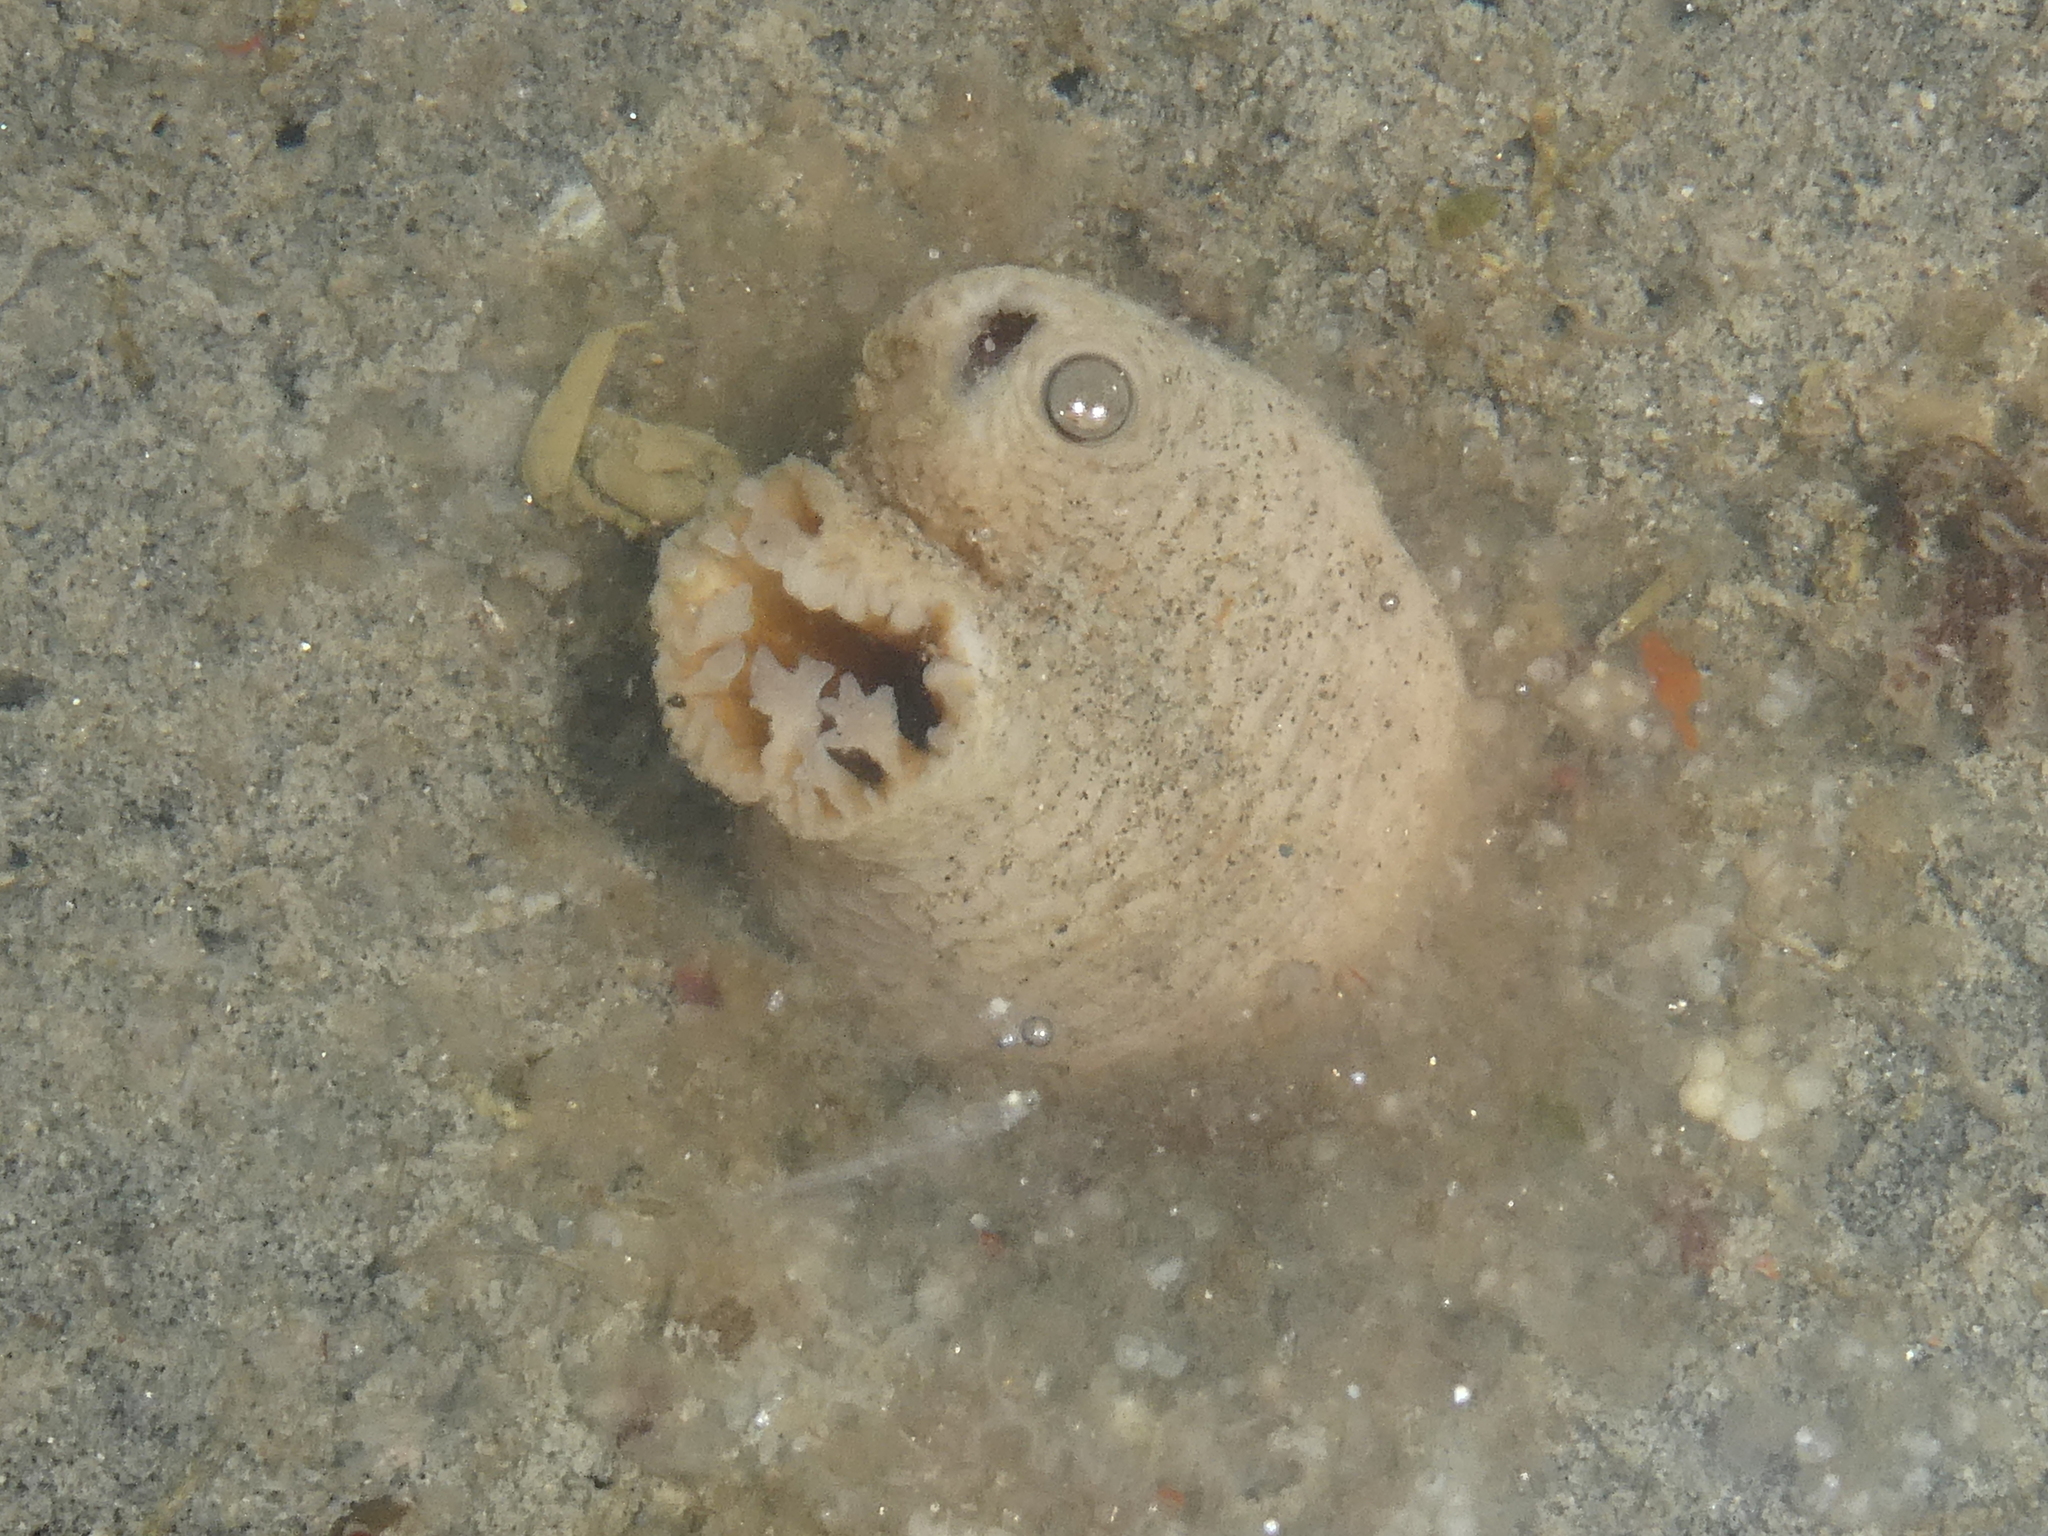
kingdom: Animalia
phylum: Mollusca
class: Bivalvia
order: Myida
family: Pholadidae
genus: Zirfaea
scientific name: Zirfaea pilsbryi
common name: Rough piddock
